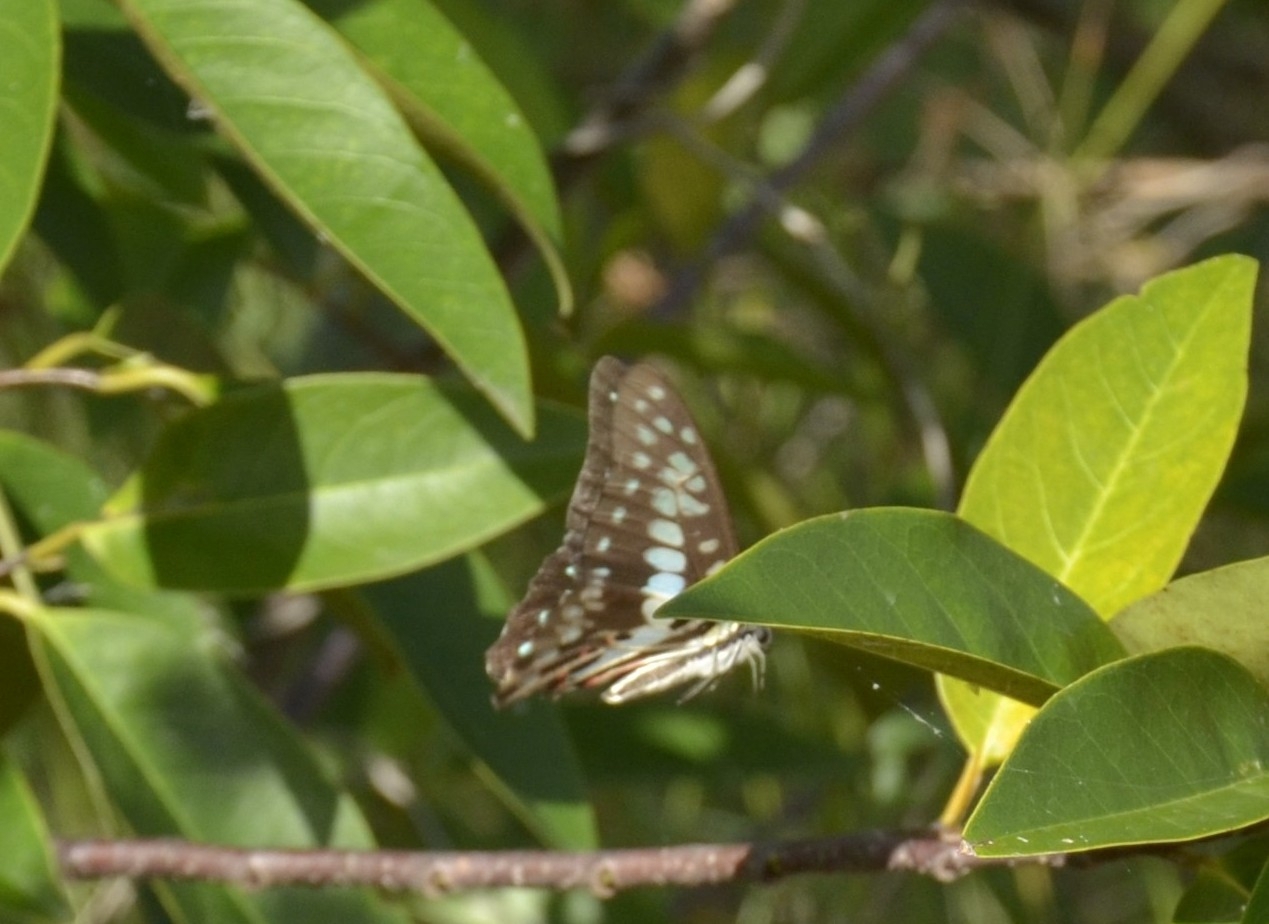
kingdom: Animalia
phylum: Arthropoda
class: Insecta
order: Lepidoptera
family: Papilionidae
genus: Graphium
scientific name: Graphium doson
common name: Common jay
